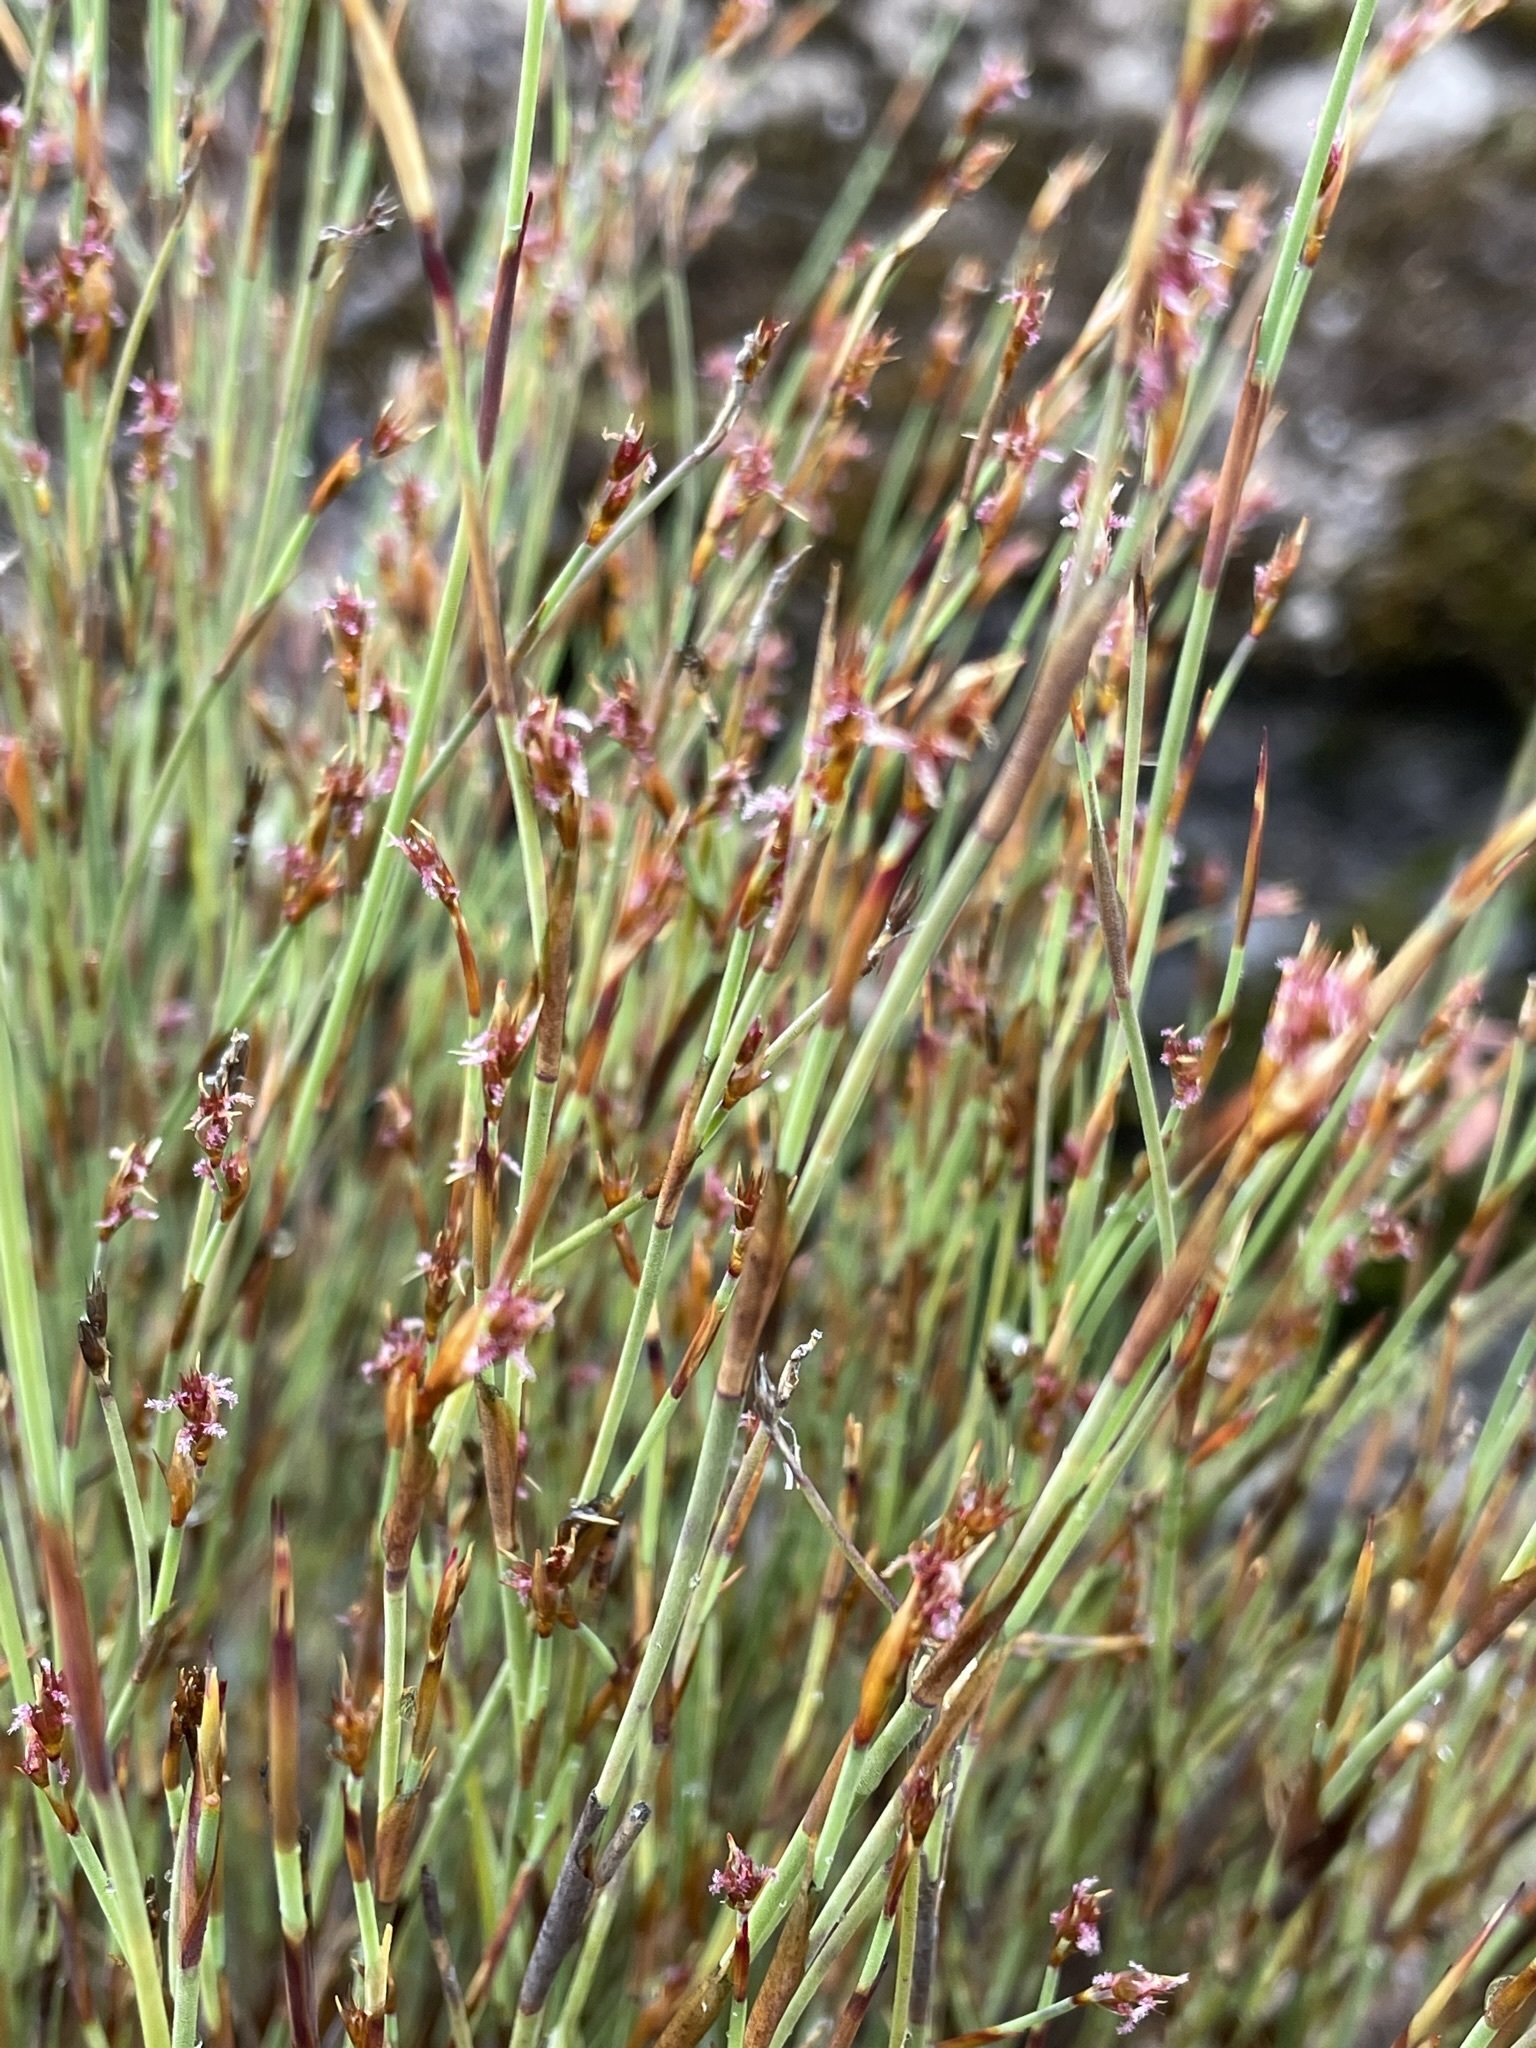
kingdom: Plantae
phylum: Tracheophyta
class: Liliopsida
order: Poales
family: Restionaceae
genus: Sporadanthus
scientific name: Sporadanthus tasmanicus
